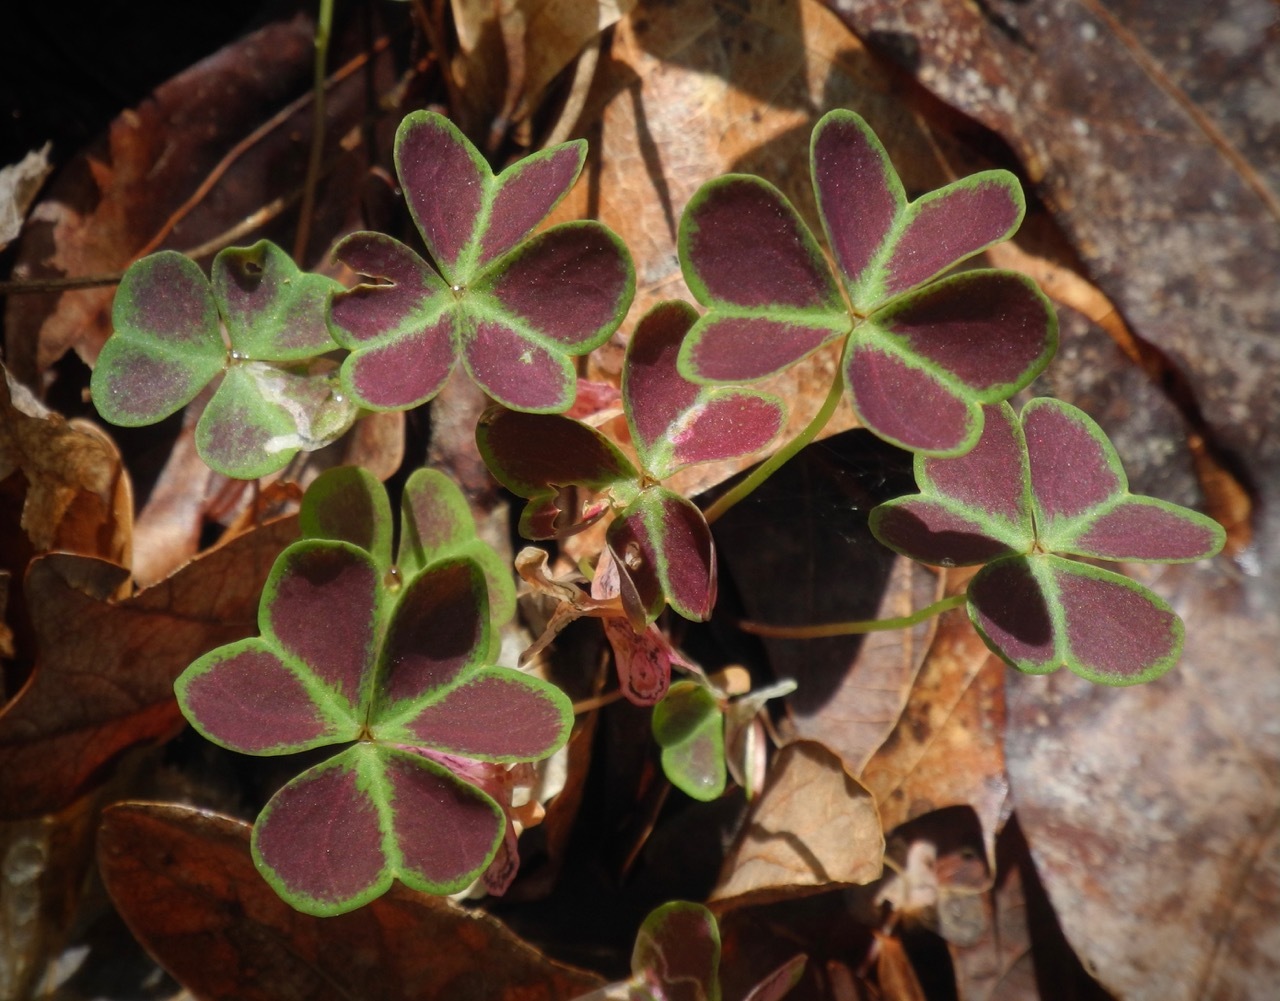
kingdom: Plantae
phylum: Tracheophyta
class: Magnoliopsida
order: Oxalidales
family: Oxalidaceae
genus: Oxalis
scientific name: Oxalis violacea
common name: Violet wood-sorrel
